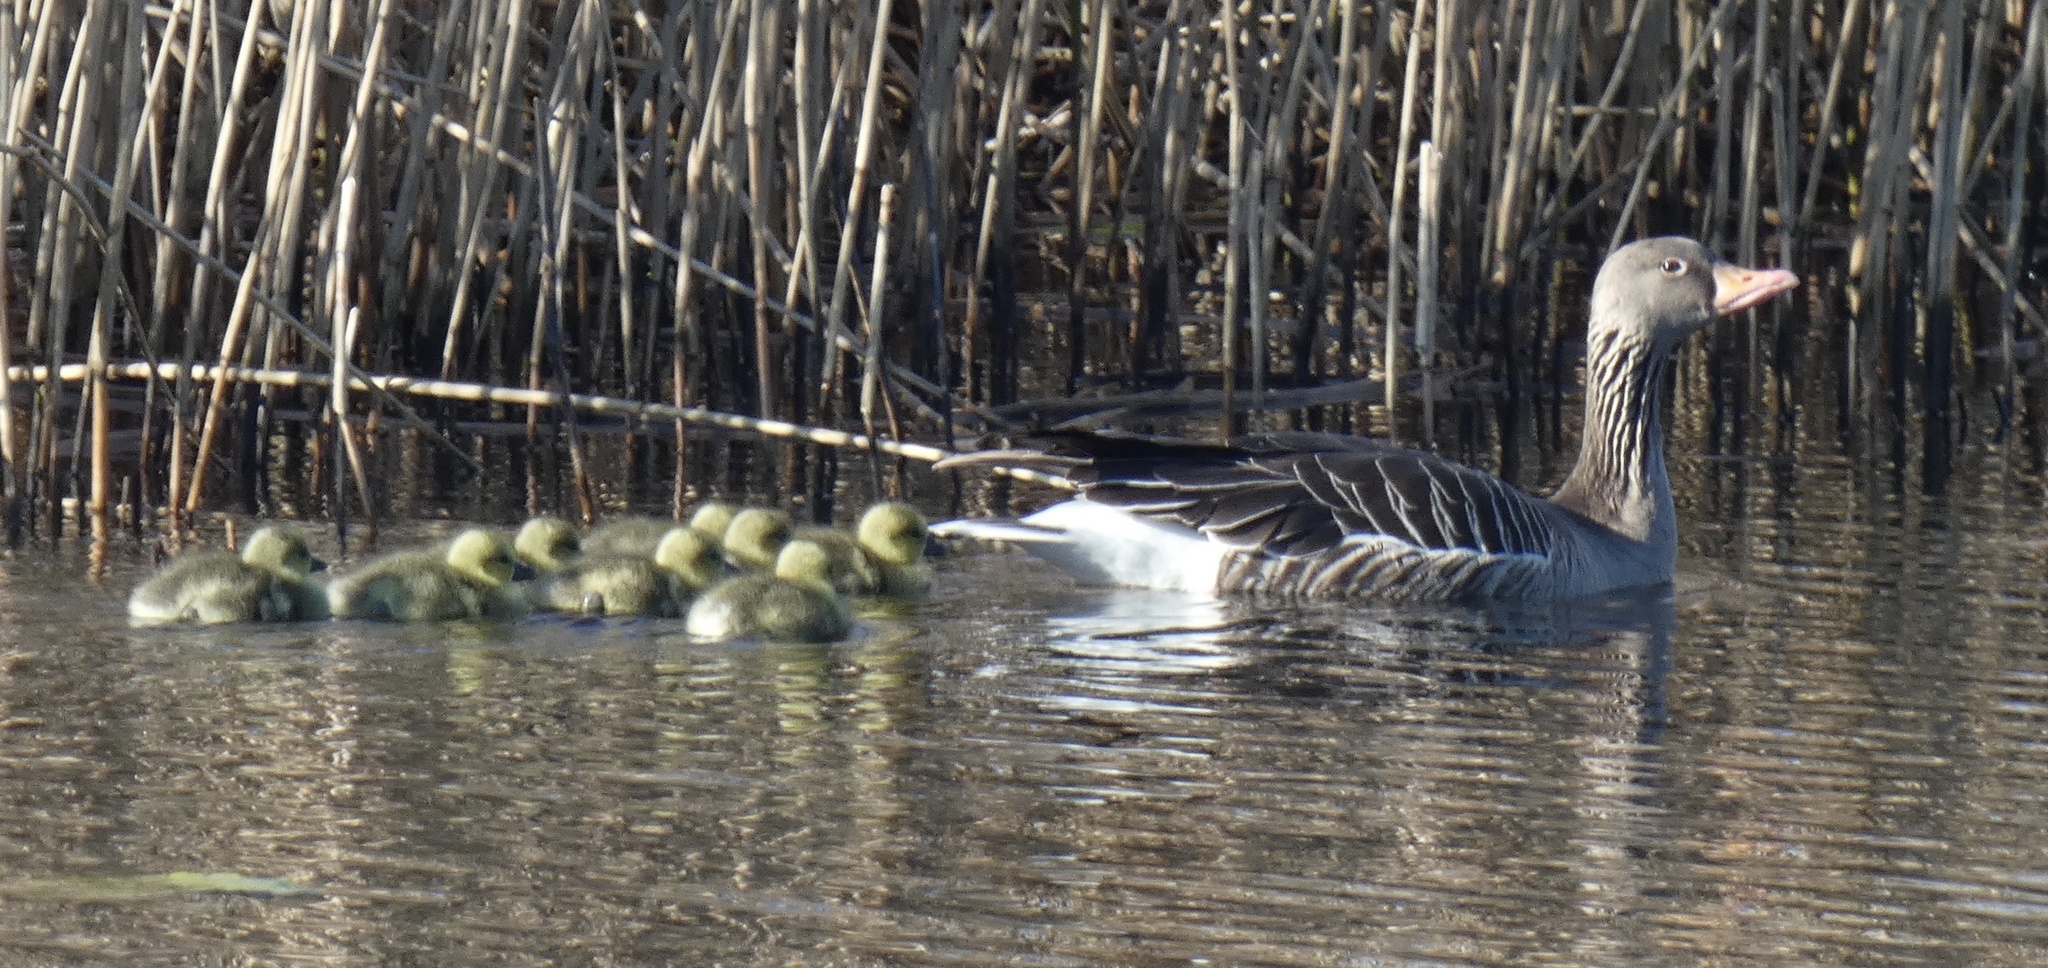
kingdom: Animalia
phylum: Chordata
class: Aves
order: Anseriformes
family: Anatidae
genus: Anser
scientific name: Anser anser
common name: Greylag goose
